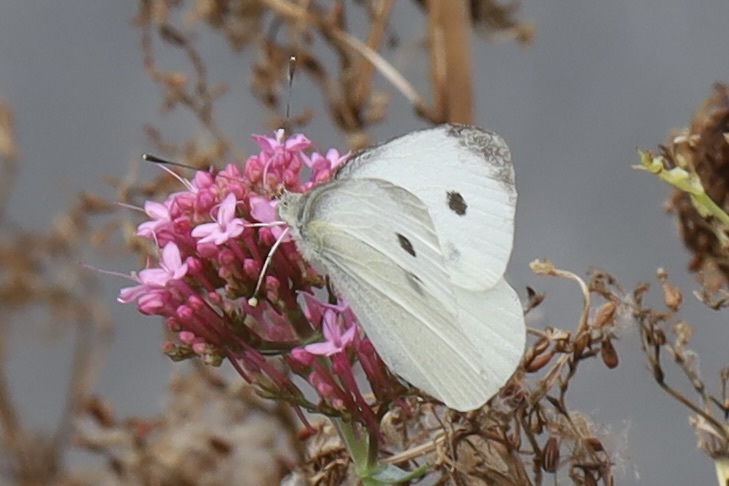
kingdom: Animalia
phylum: Arthropoda
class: Insecta
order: Lepidoptera
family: Pieridae
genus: Pieris
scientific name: Pieris rapae
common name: Small white
